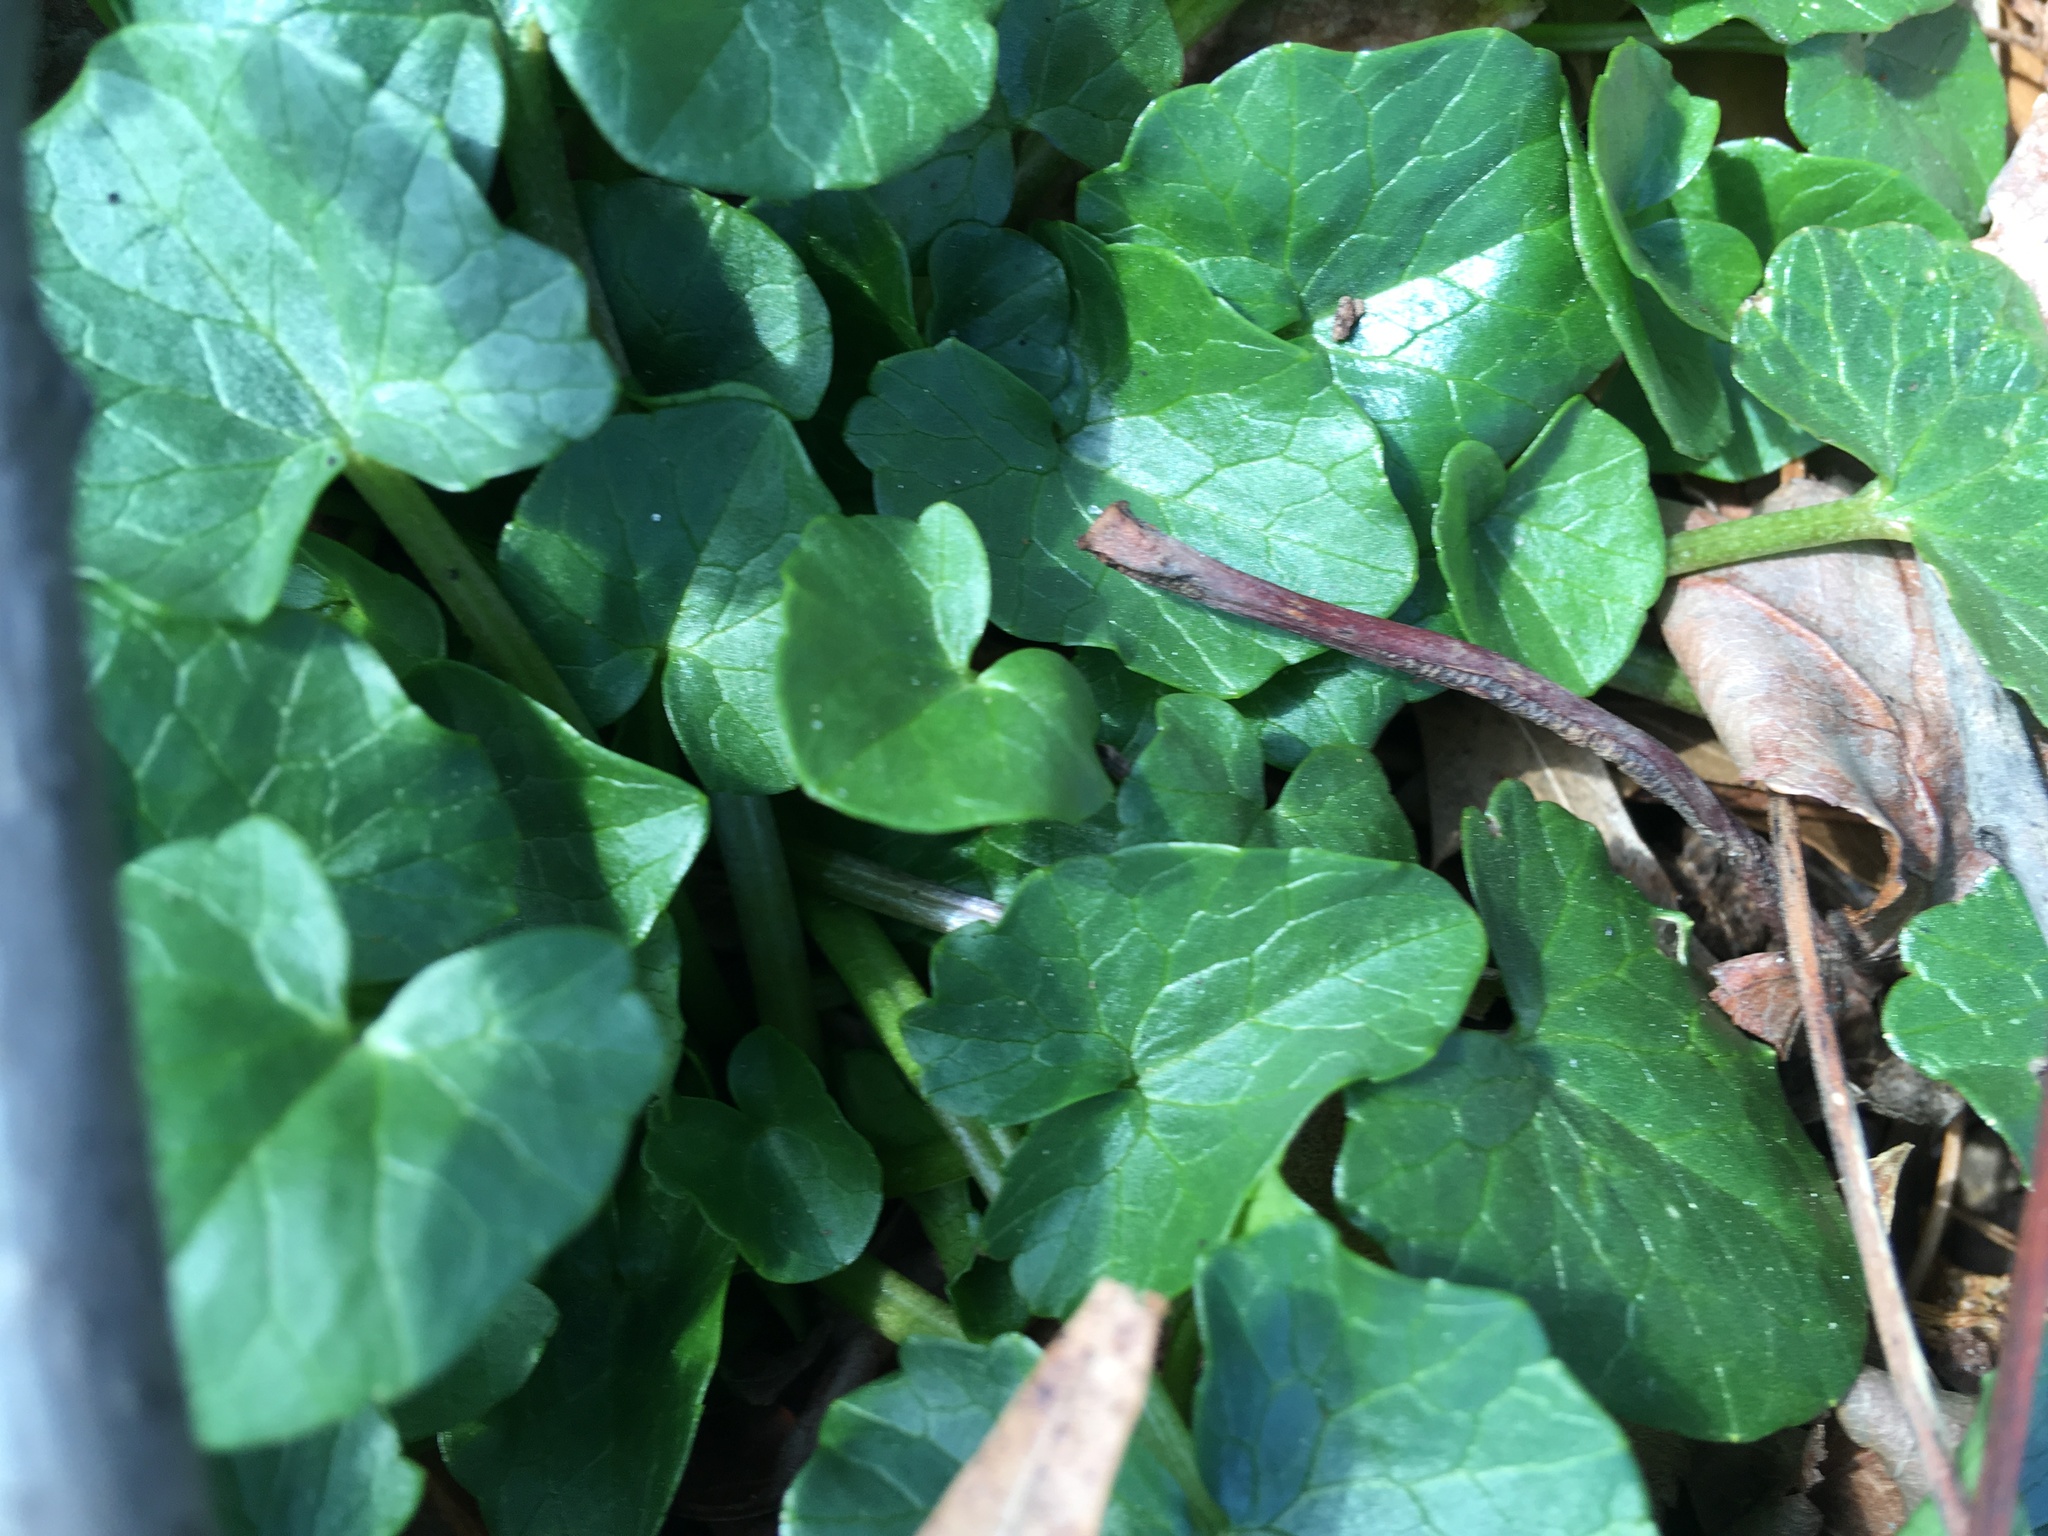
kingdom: Plantae
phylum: Tracheophyta
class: Magnoliopsida
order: Ranunculales
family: Ranunculaceae
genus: Ficaria
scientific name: Ficaria verna
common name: Lesser celandine
